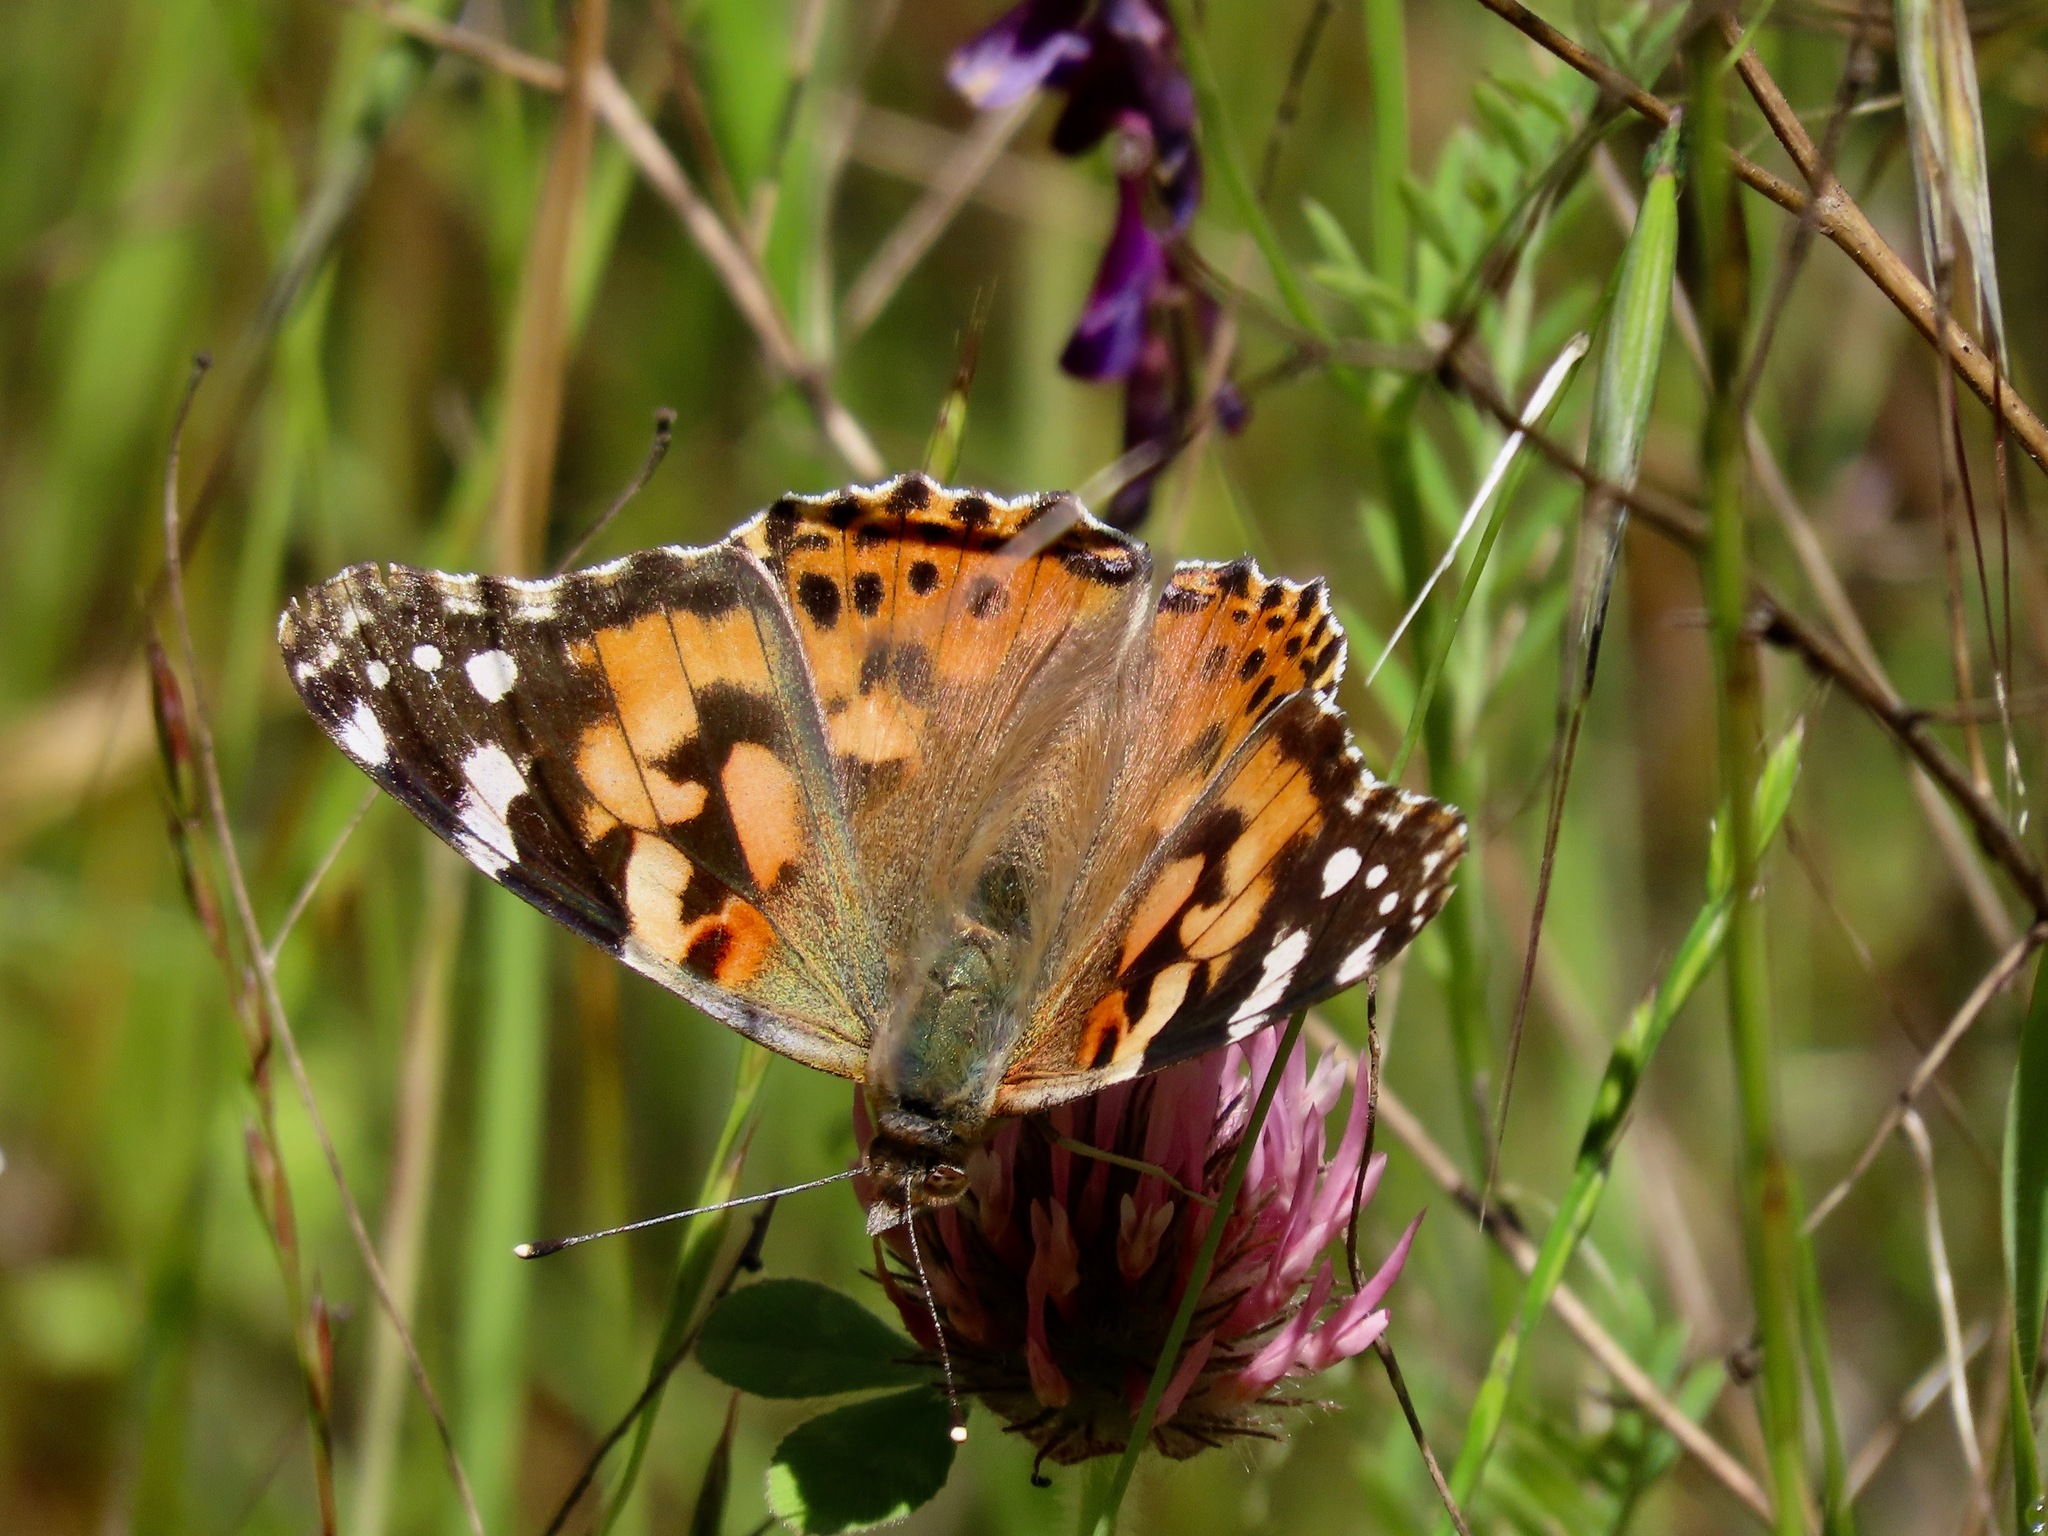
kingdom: Animalia
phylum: Arthropoda
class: Insecta
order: Lepidoptera
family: Nymphalidae
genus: Vanessa
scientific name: Vanessa cardui
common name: Painted lady
